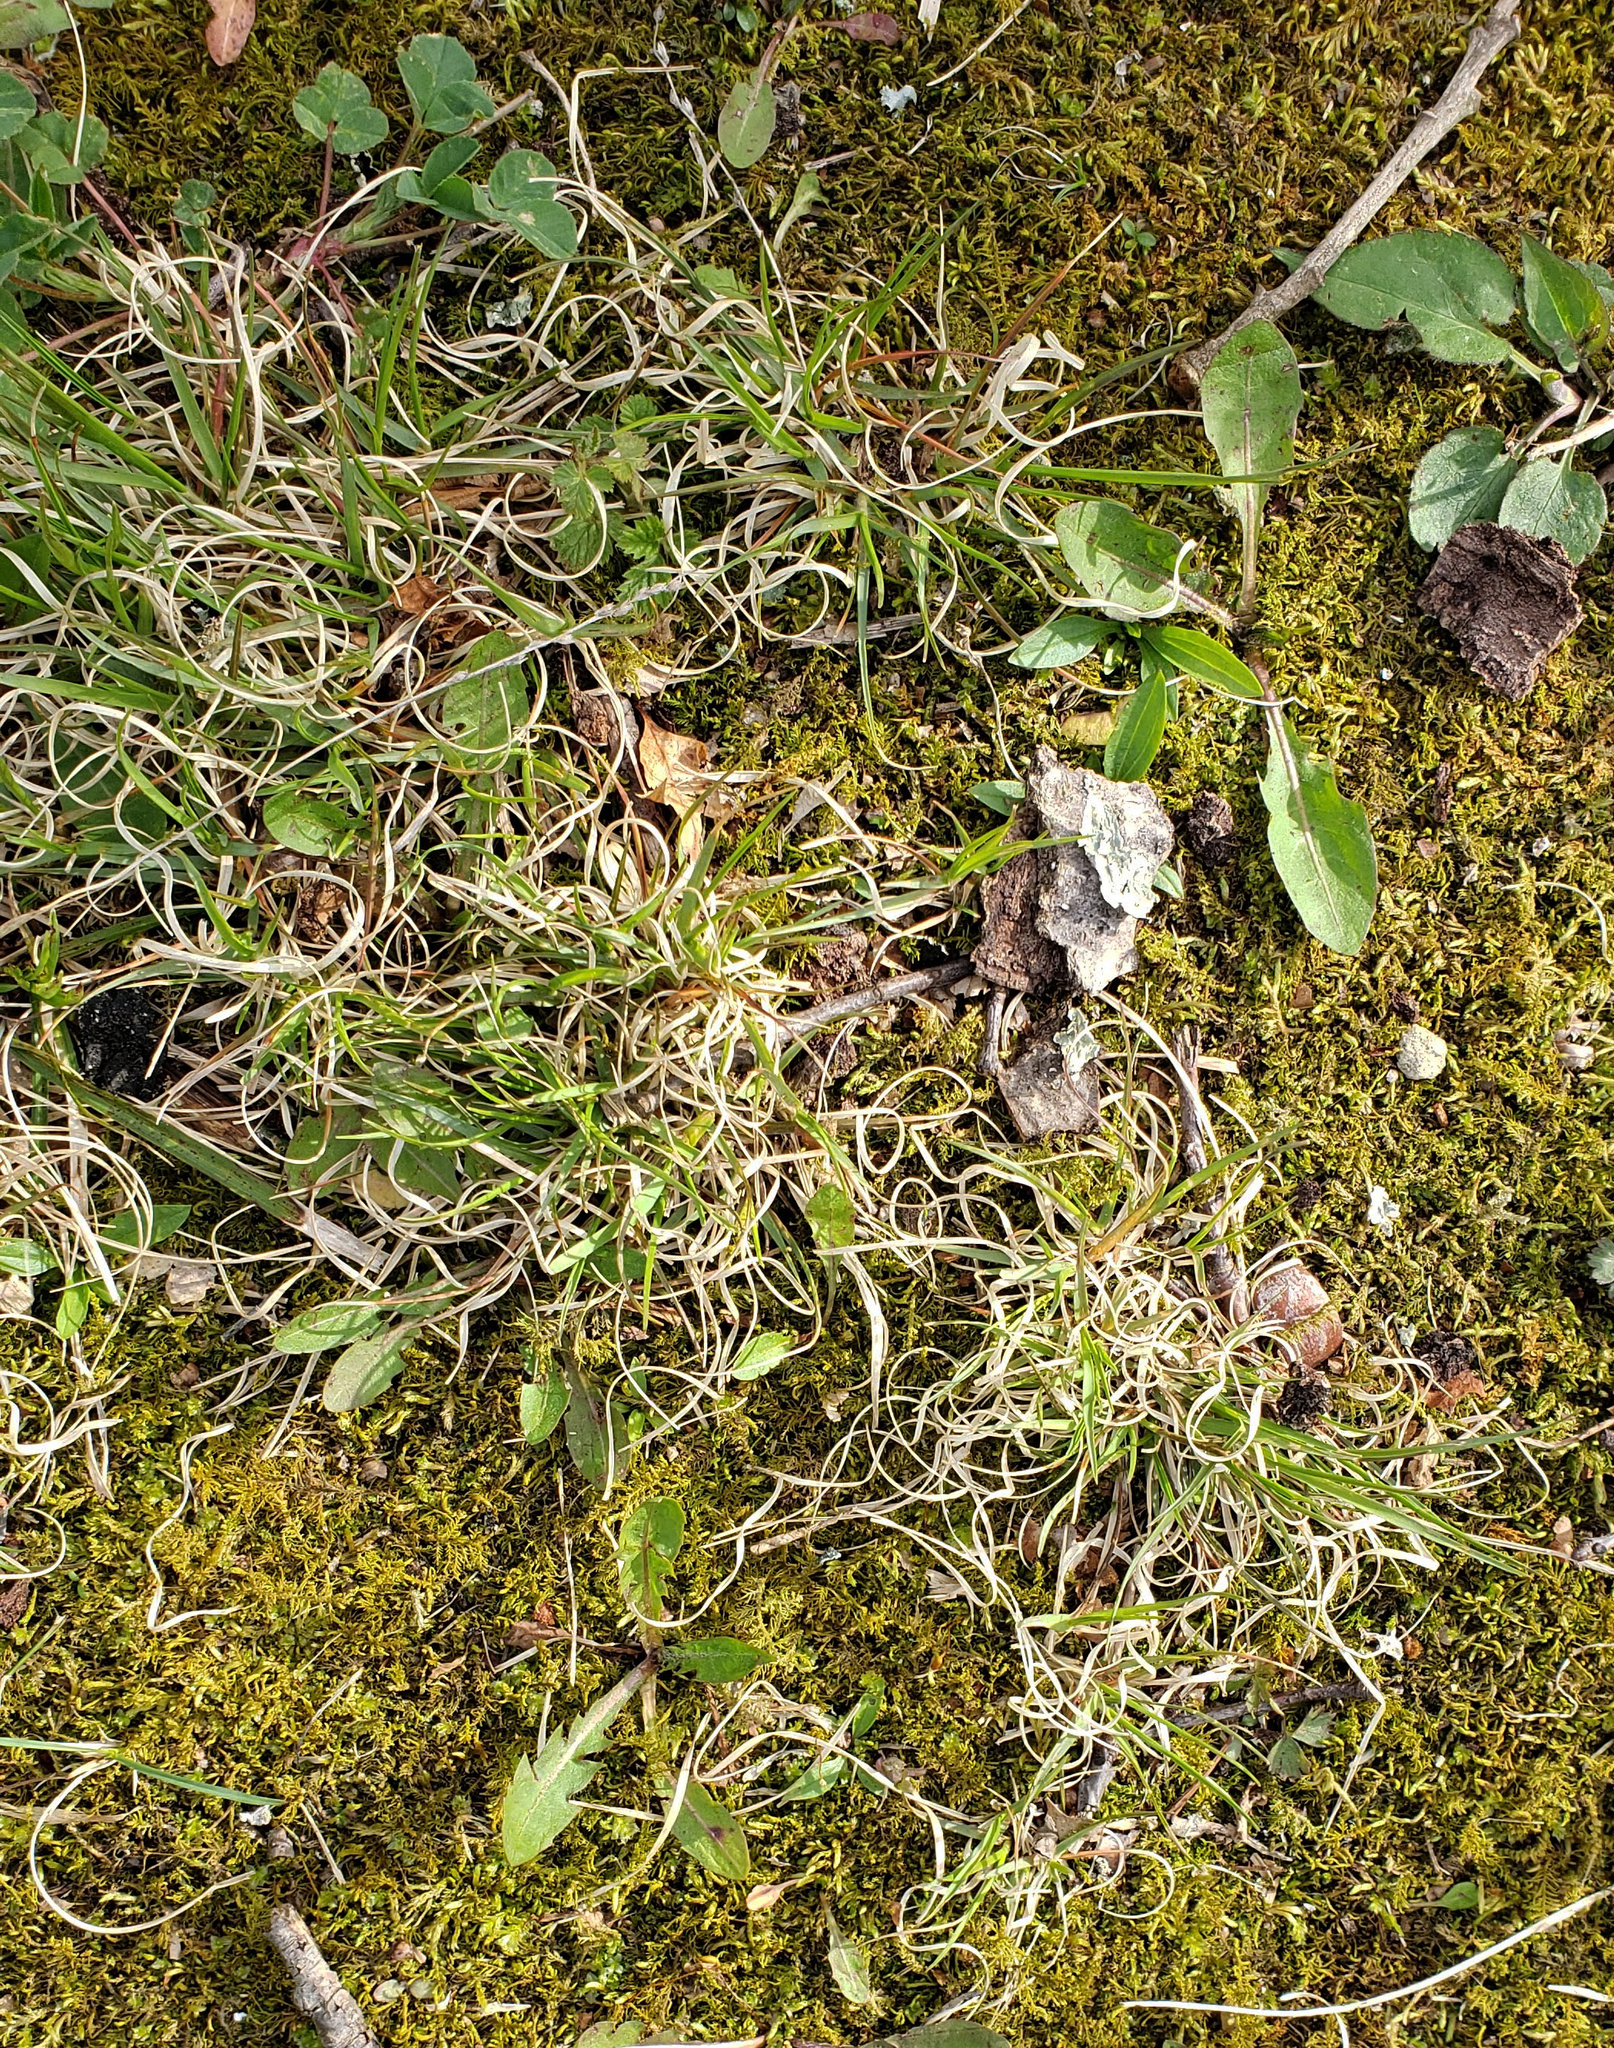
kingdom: Plantae
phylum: Tracheophyta
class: Liliopsida
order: Poales
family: Poaceae
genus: Danthonia
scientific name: Danthonia spicata
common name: Common wild oatgrass
